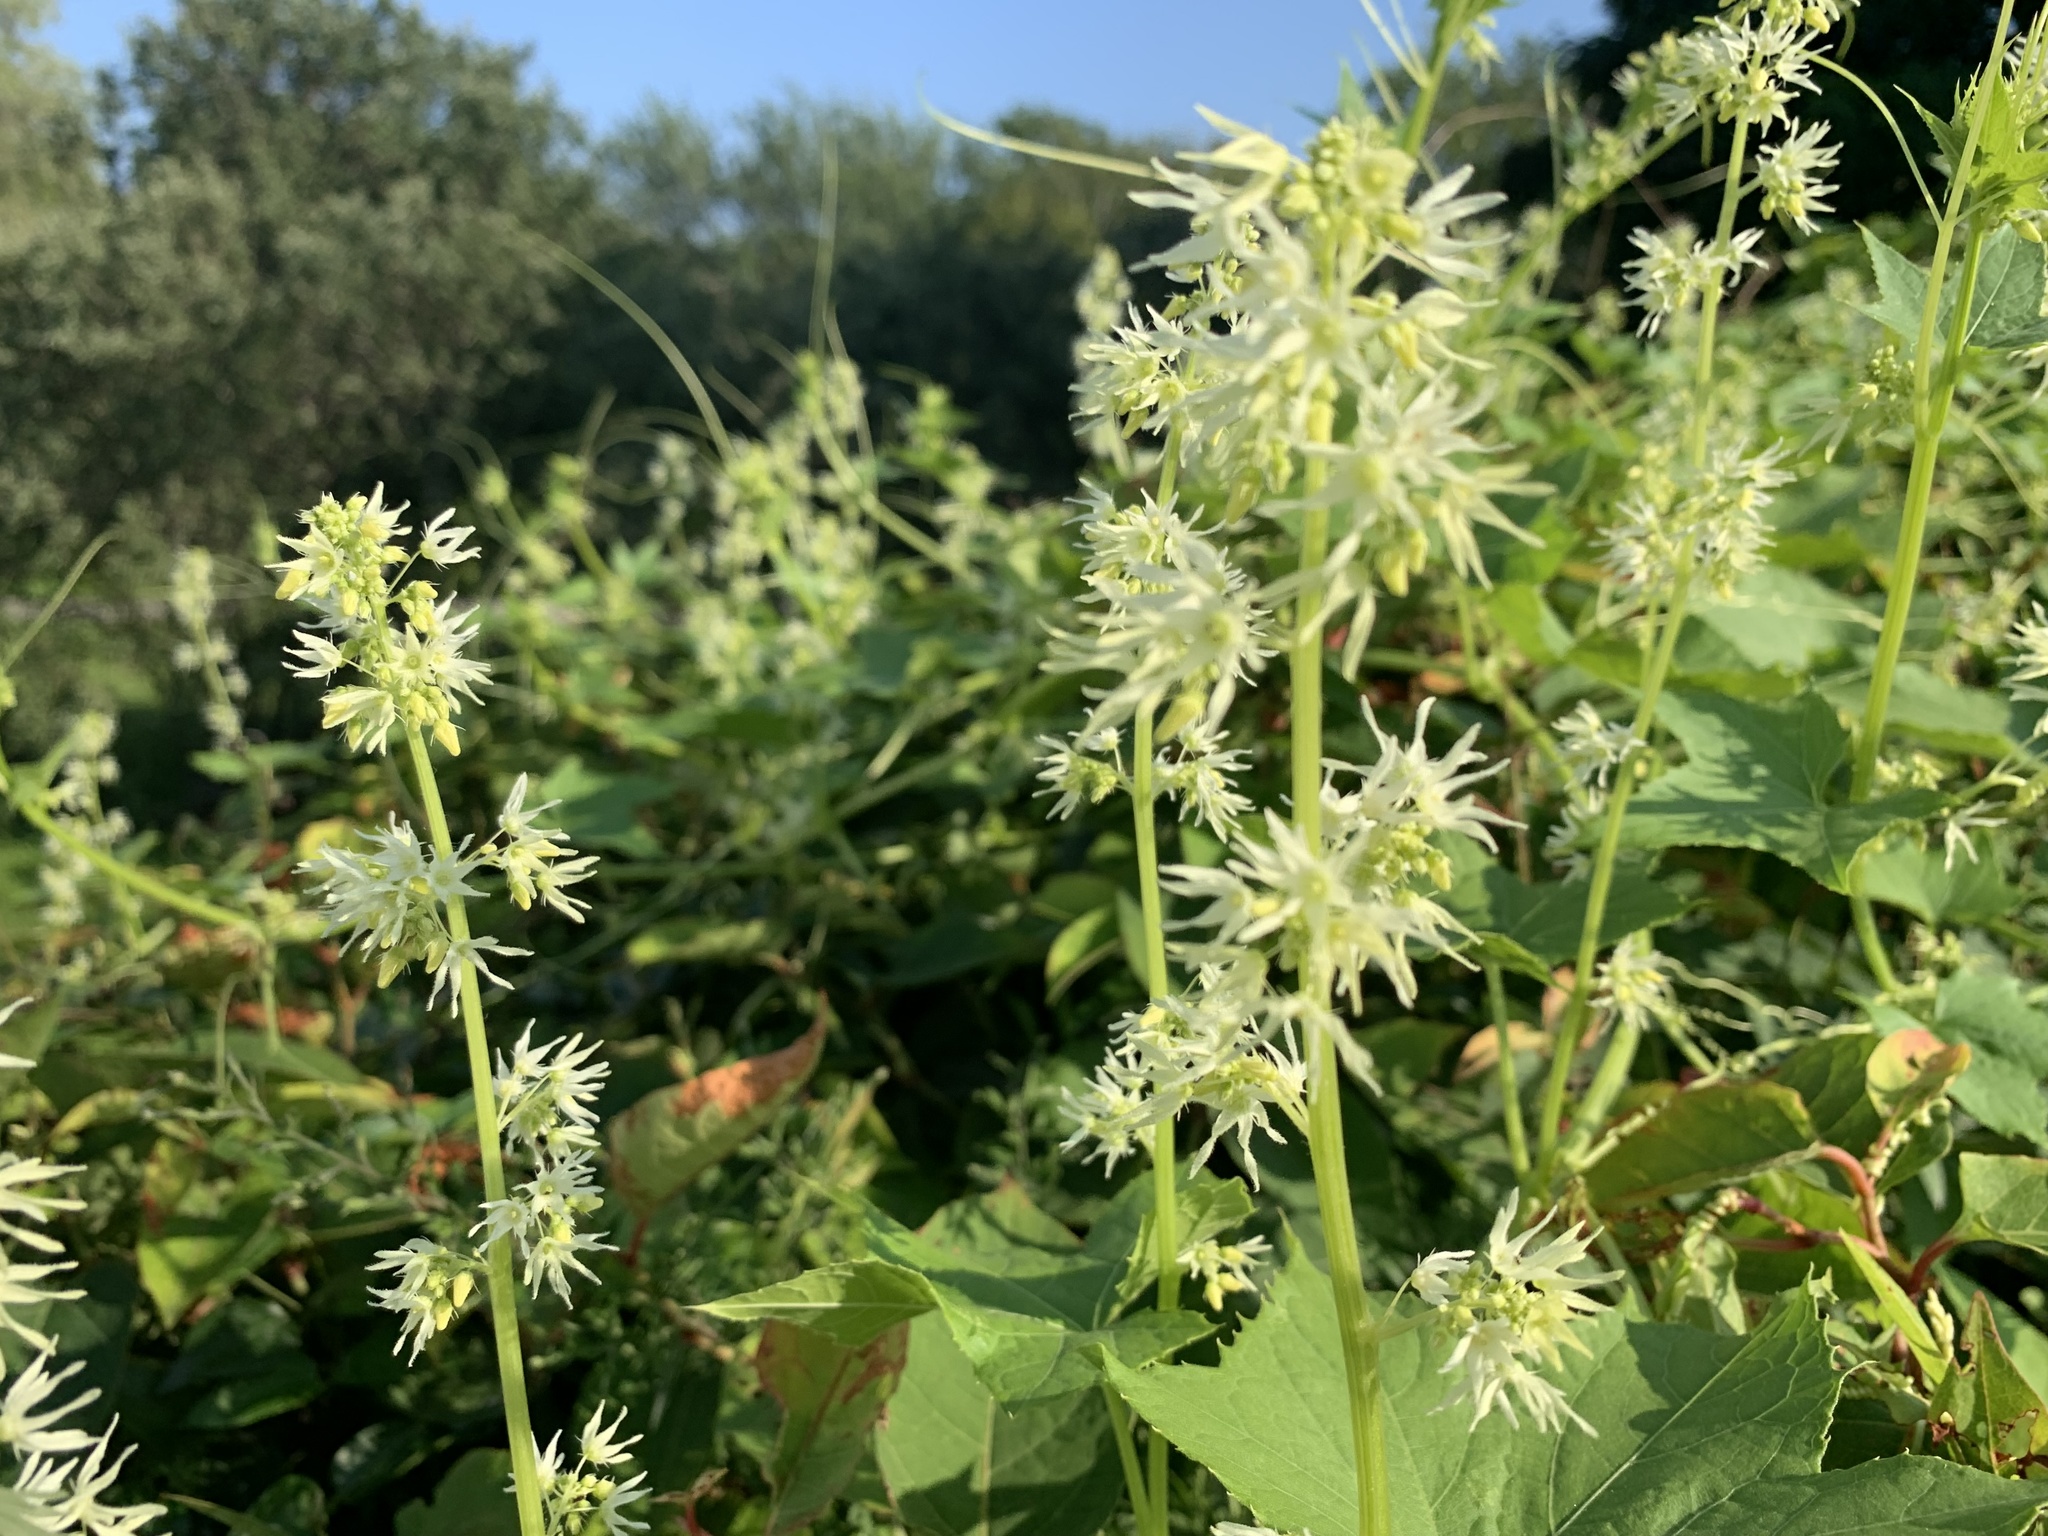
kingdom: Plantae
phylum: Tracheophyta
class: Magnoliopsida
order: Cucurbitales
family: Cucurbitaceae
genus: Echinocystis
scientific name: Echinocystis lobata
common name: Wild cucumber
